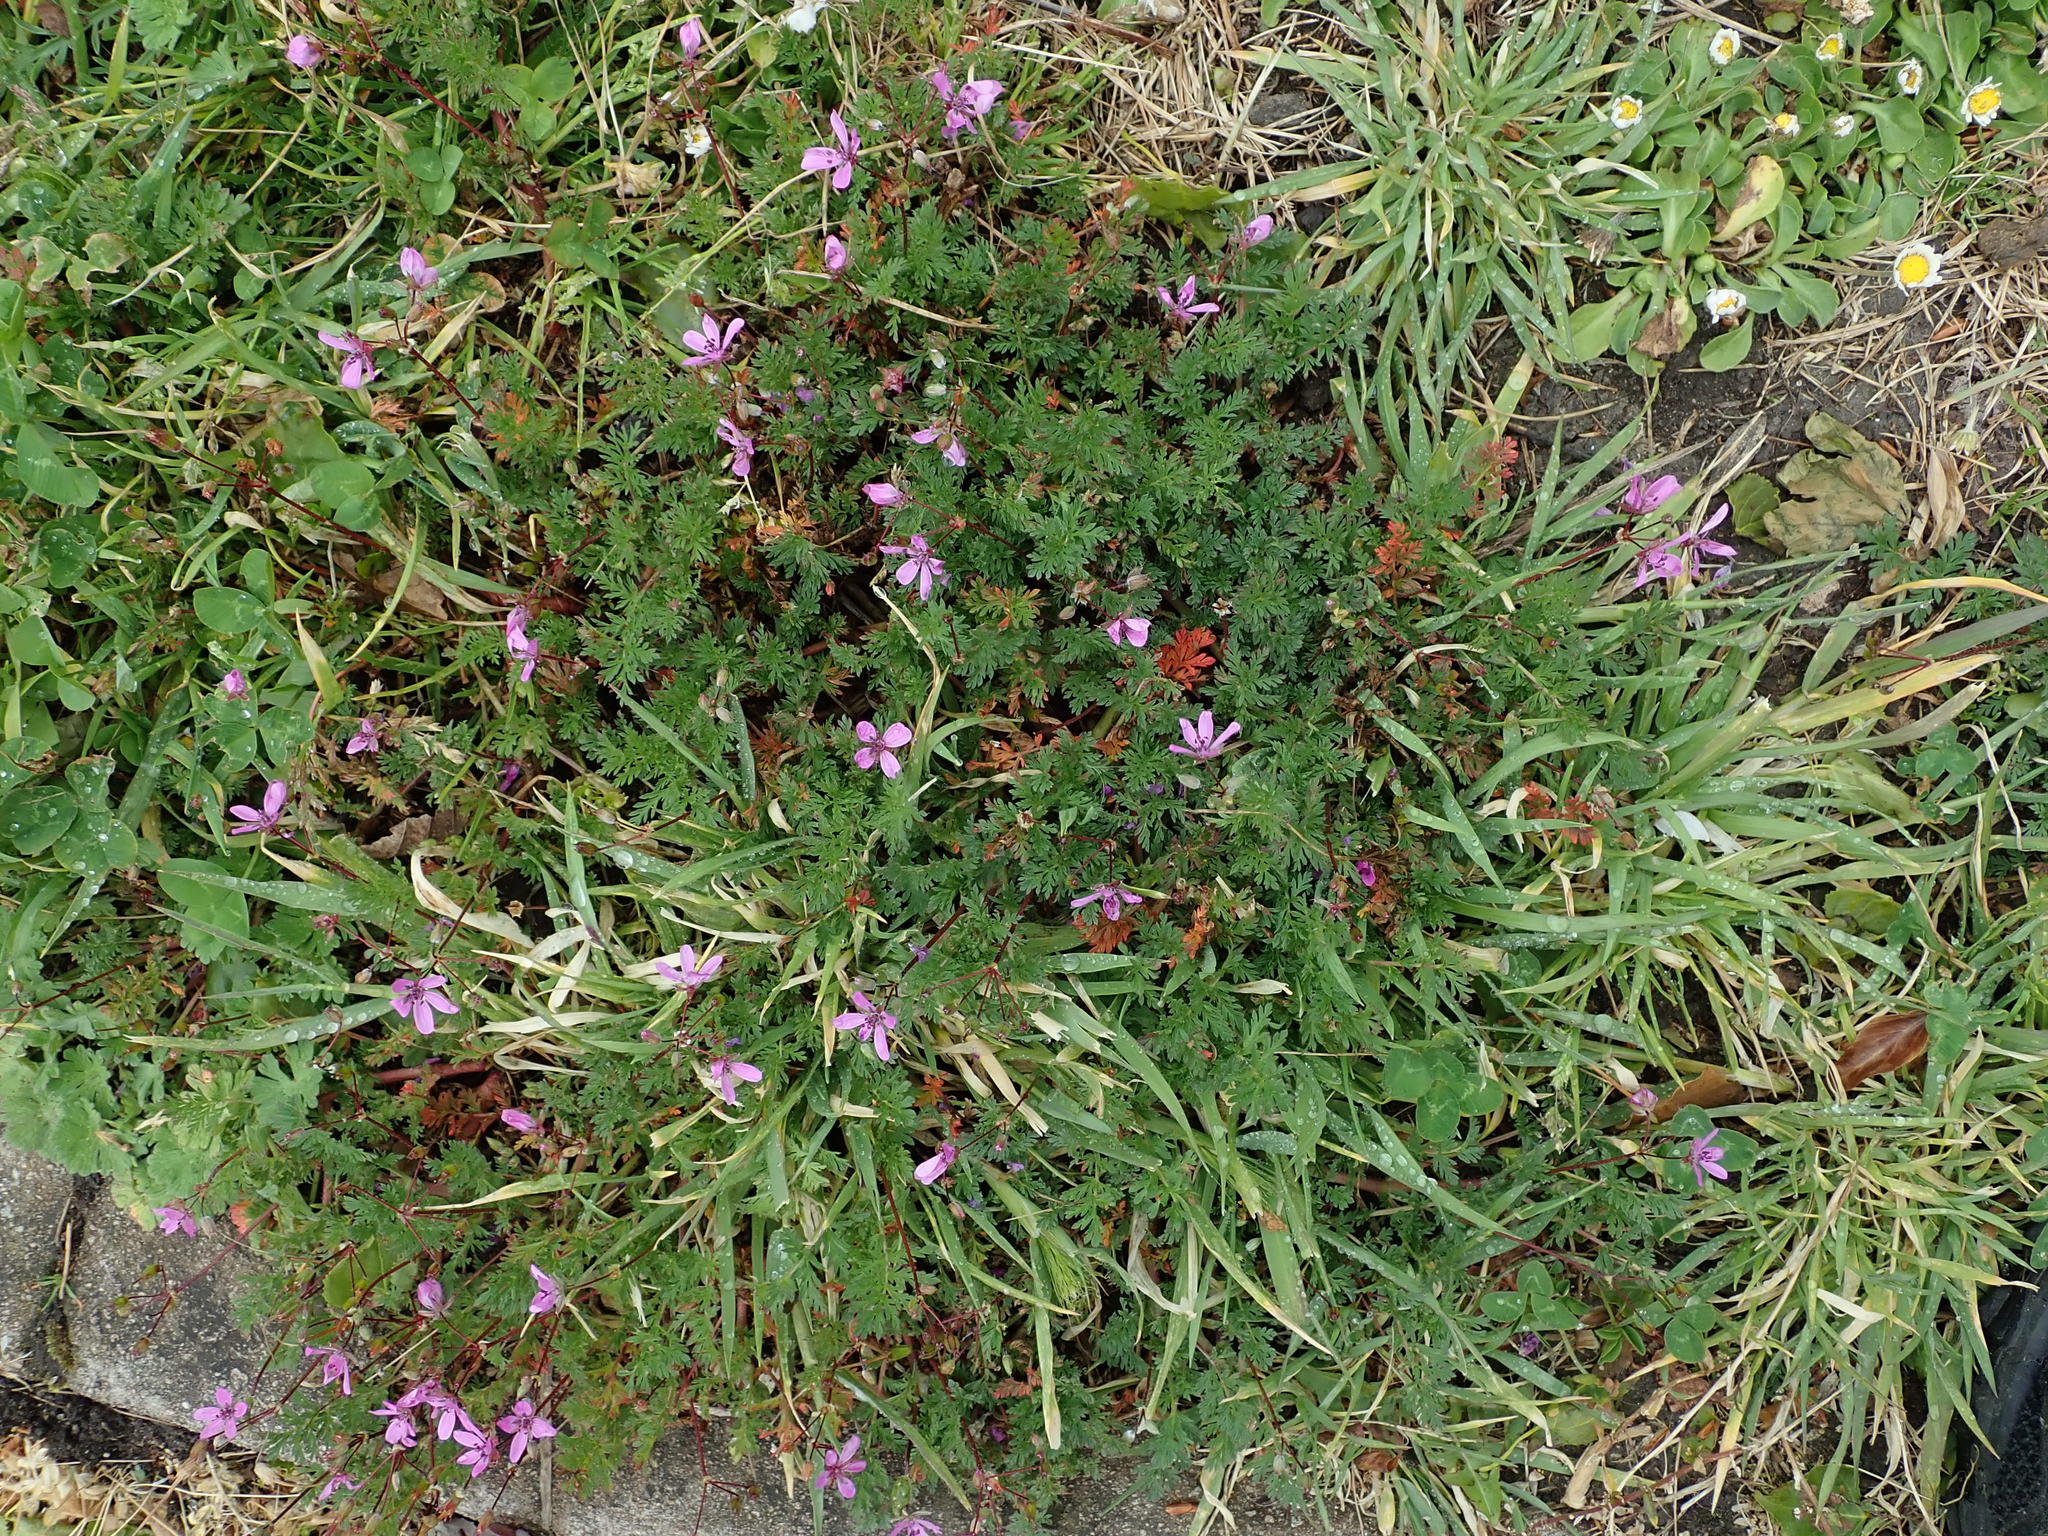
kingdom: Plantae
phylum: Tracheophyta
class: Magnoliopsida
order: Geraniales
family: Geraniaceae
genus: Erodium
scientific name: Erodium cicutarium
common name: Common stork's-bill
